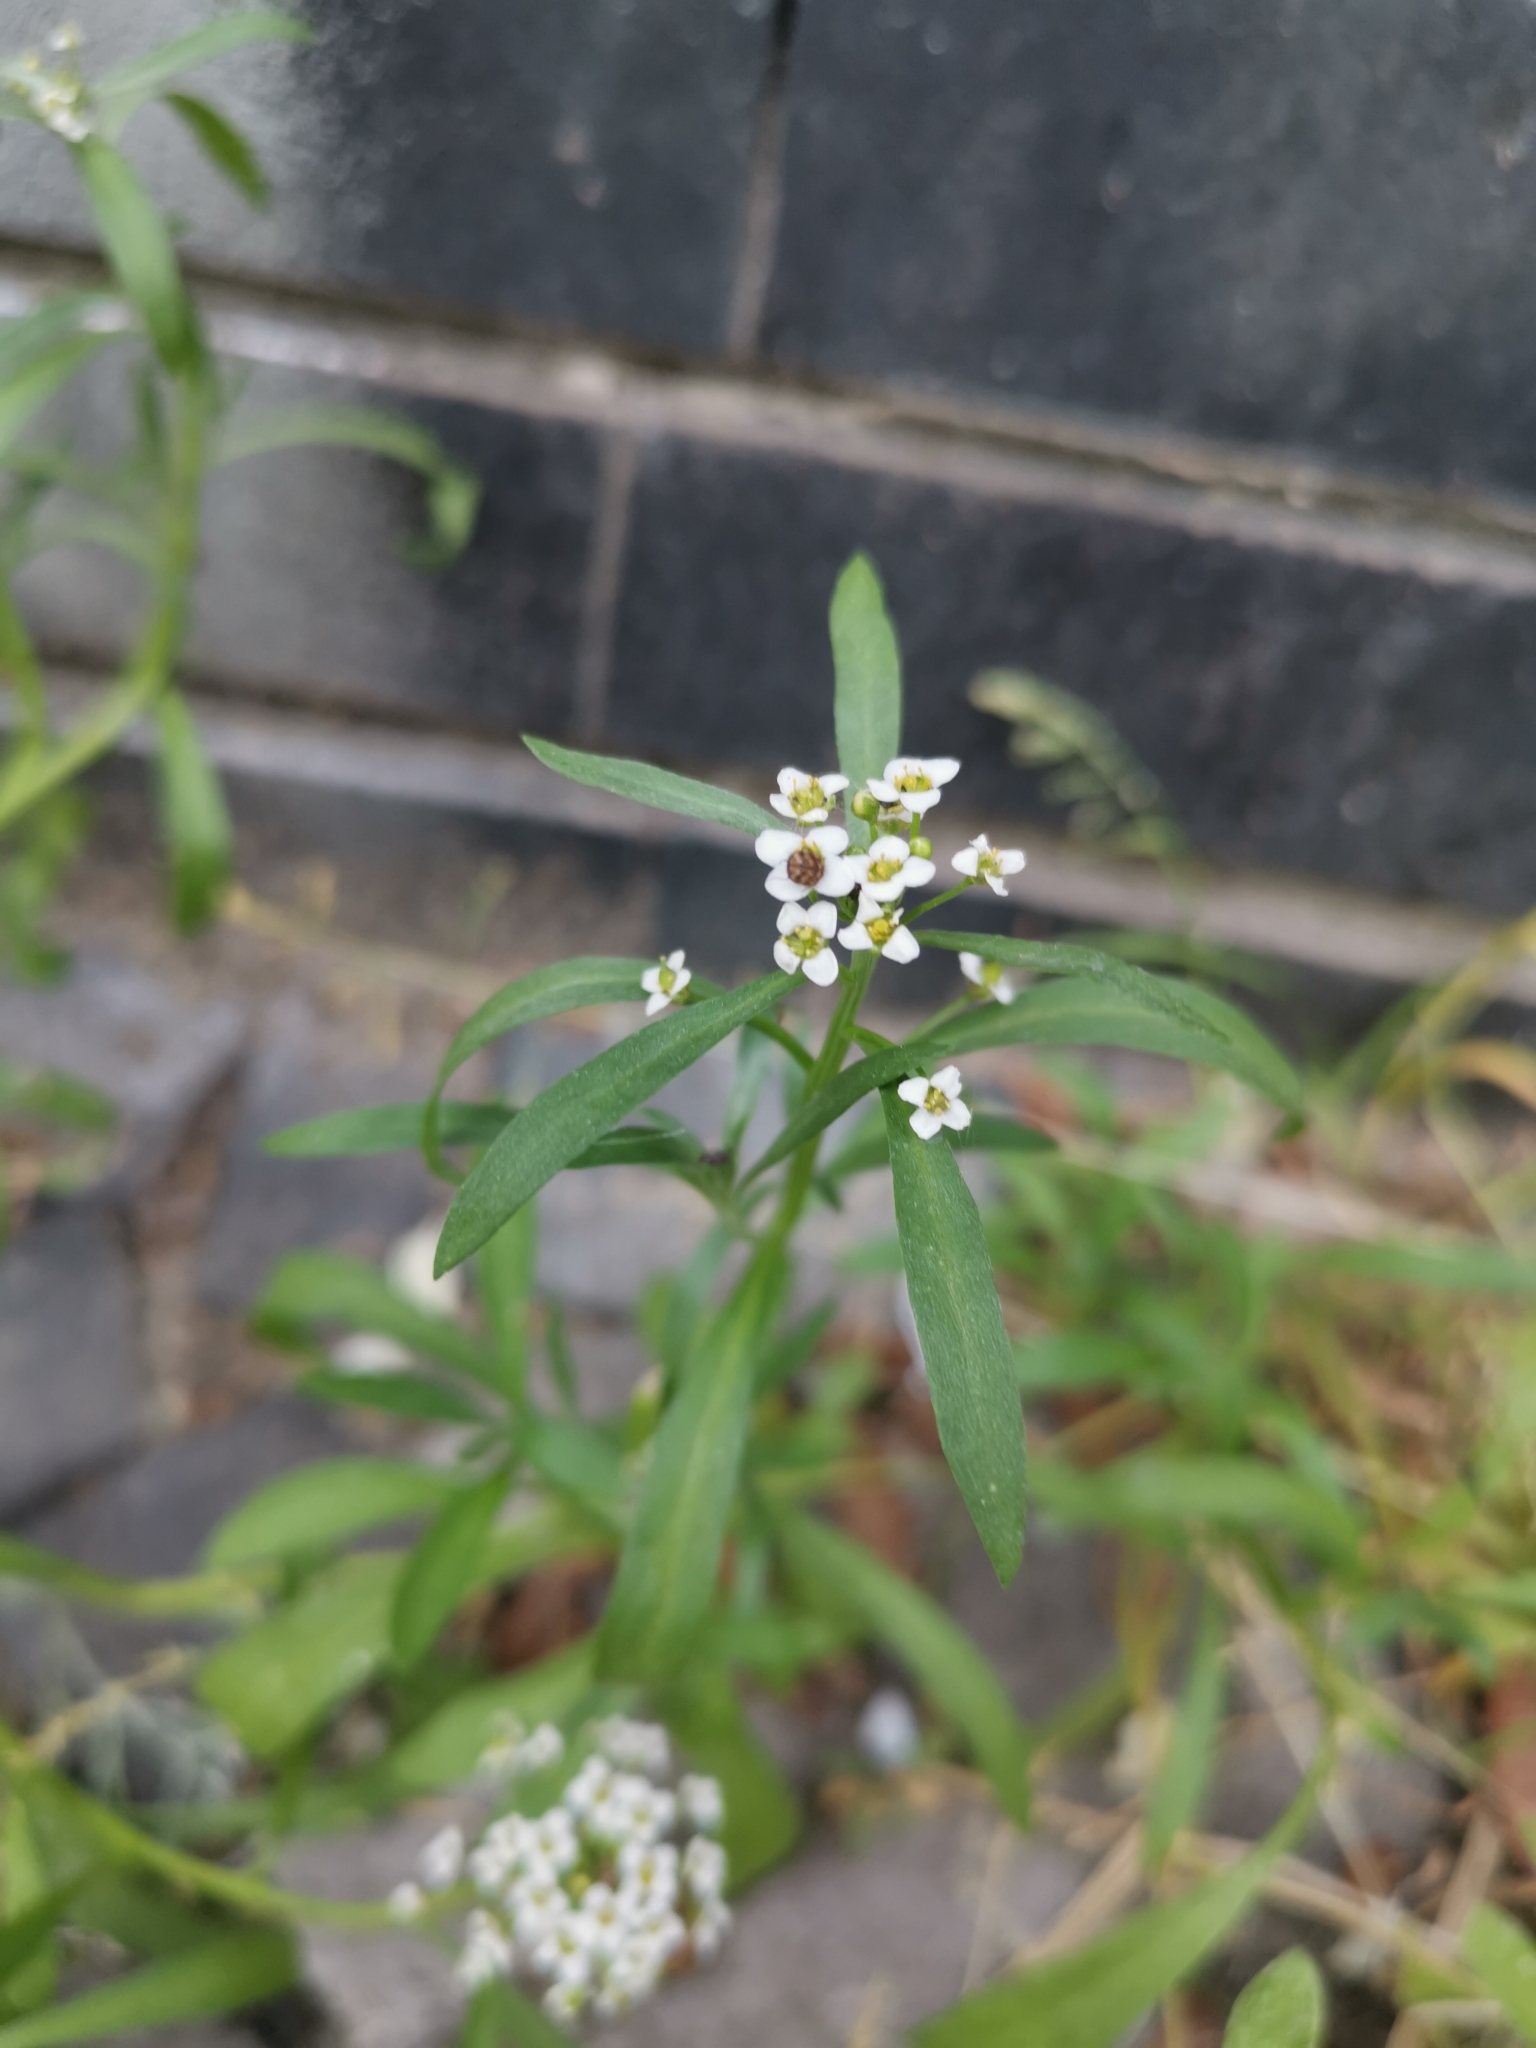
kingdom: Plantae
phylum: Tracheophyta
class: Magnoliopsida
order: Brassicales
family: Brassicaceae
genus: Lobularia
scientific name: Lobularia maritima
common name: Sweet alison
